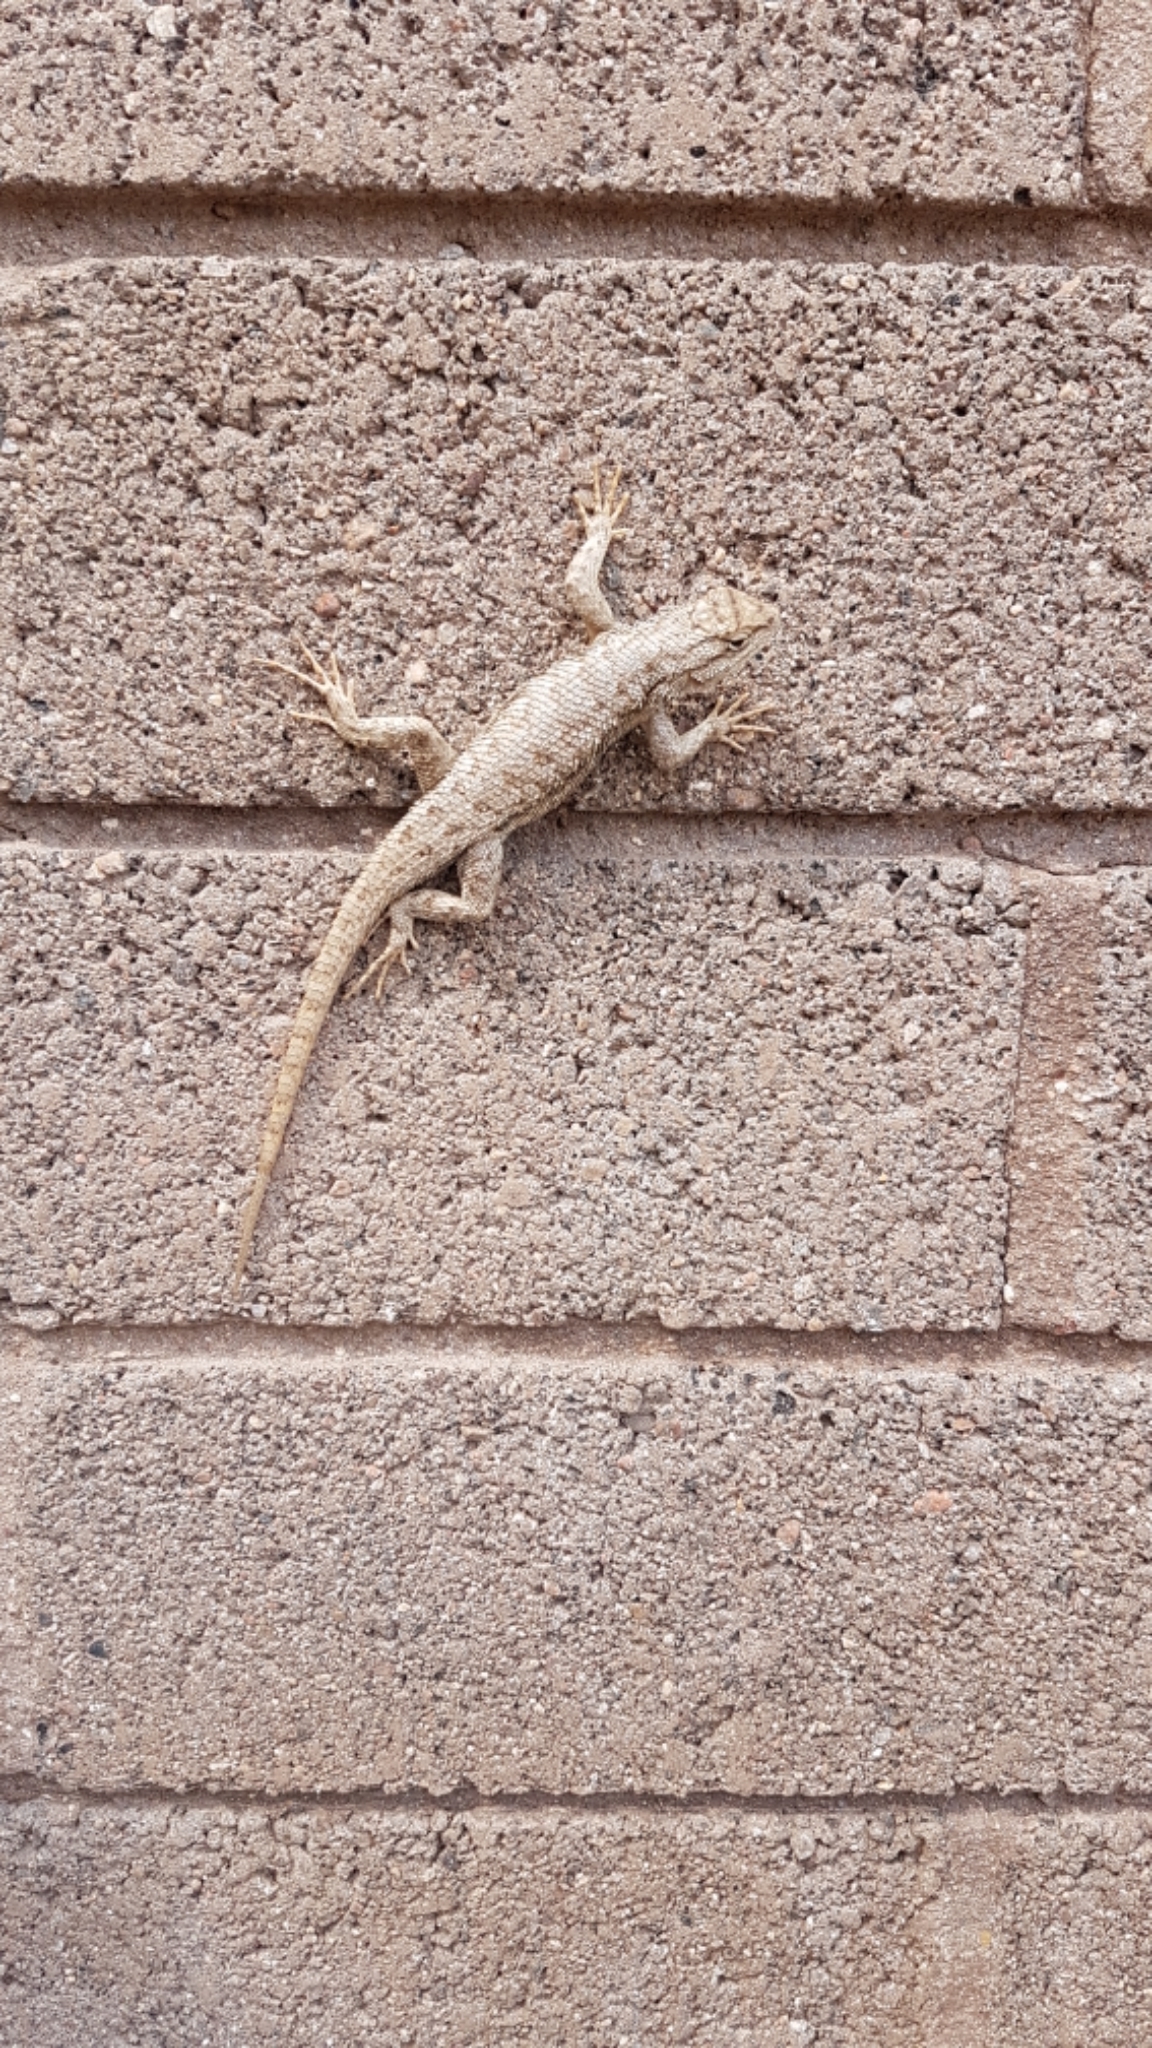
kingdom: Animalia
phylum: Chordata
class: Squamata
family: Phrynosomatidae
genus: Sceloporus
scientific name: Sceloporus tristichus
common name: Plateau fence lizard
